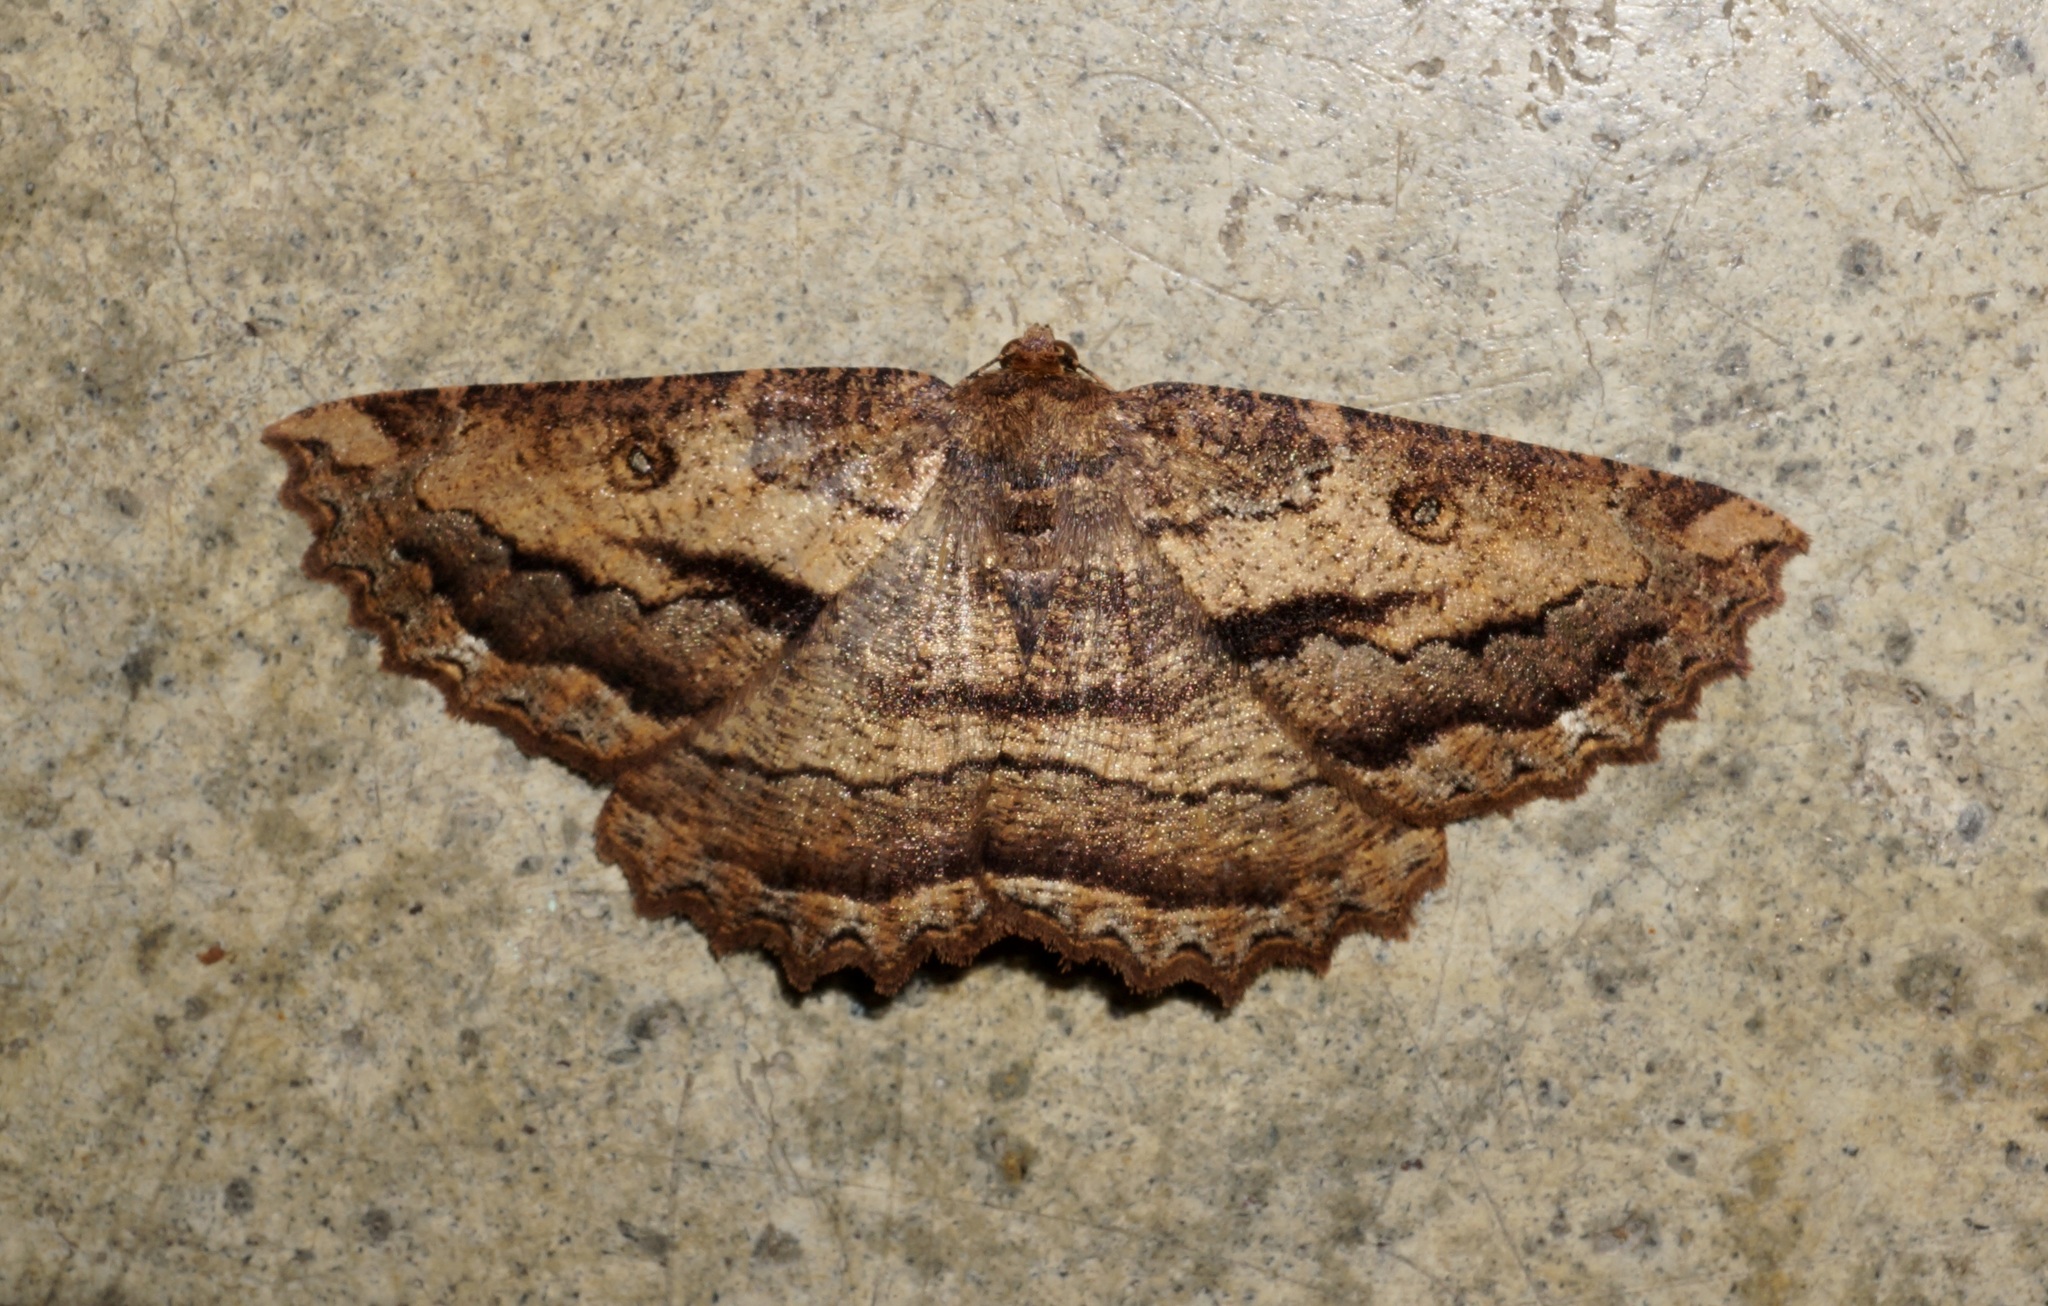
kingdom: Animalia
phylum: Arthropoda
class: Insecta
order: Lepidoptera
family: Geometridae
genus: Gellonia
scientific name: Gellonia dejectaria
